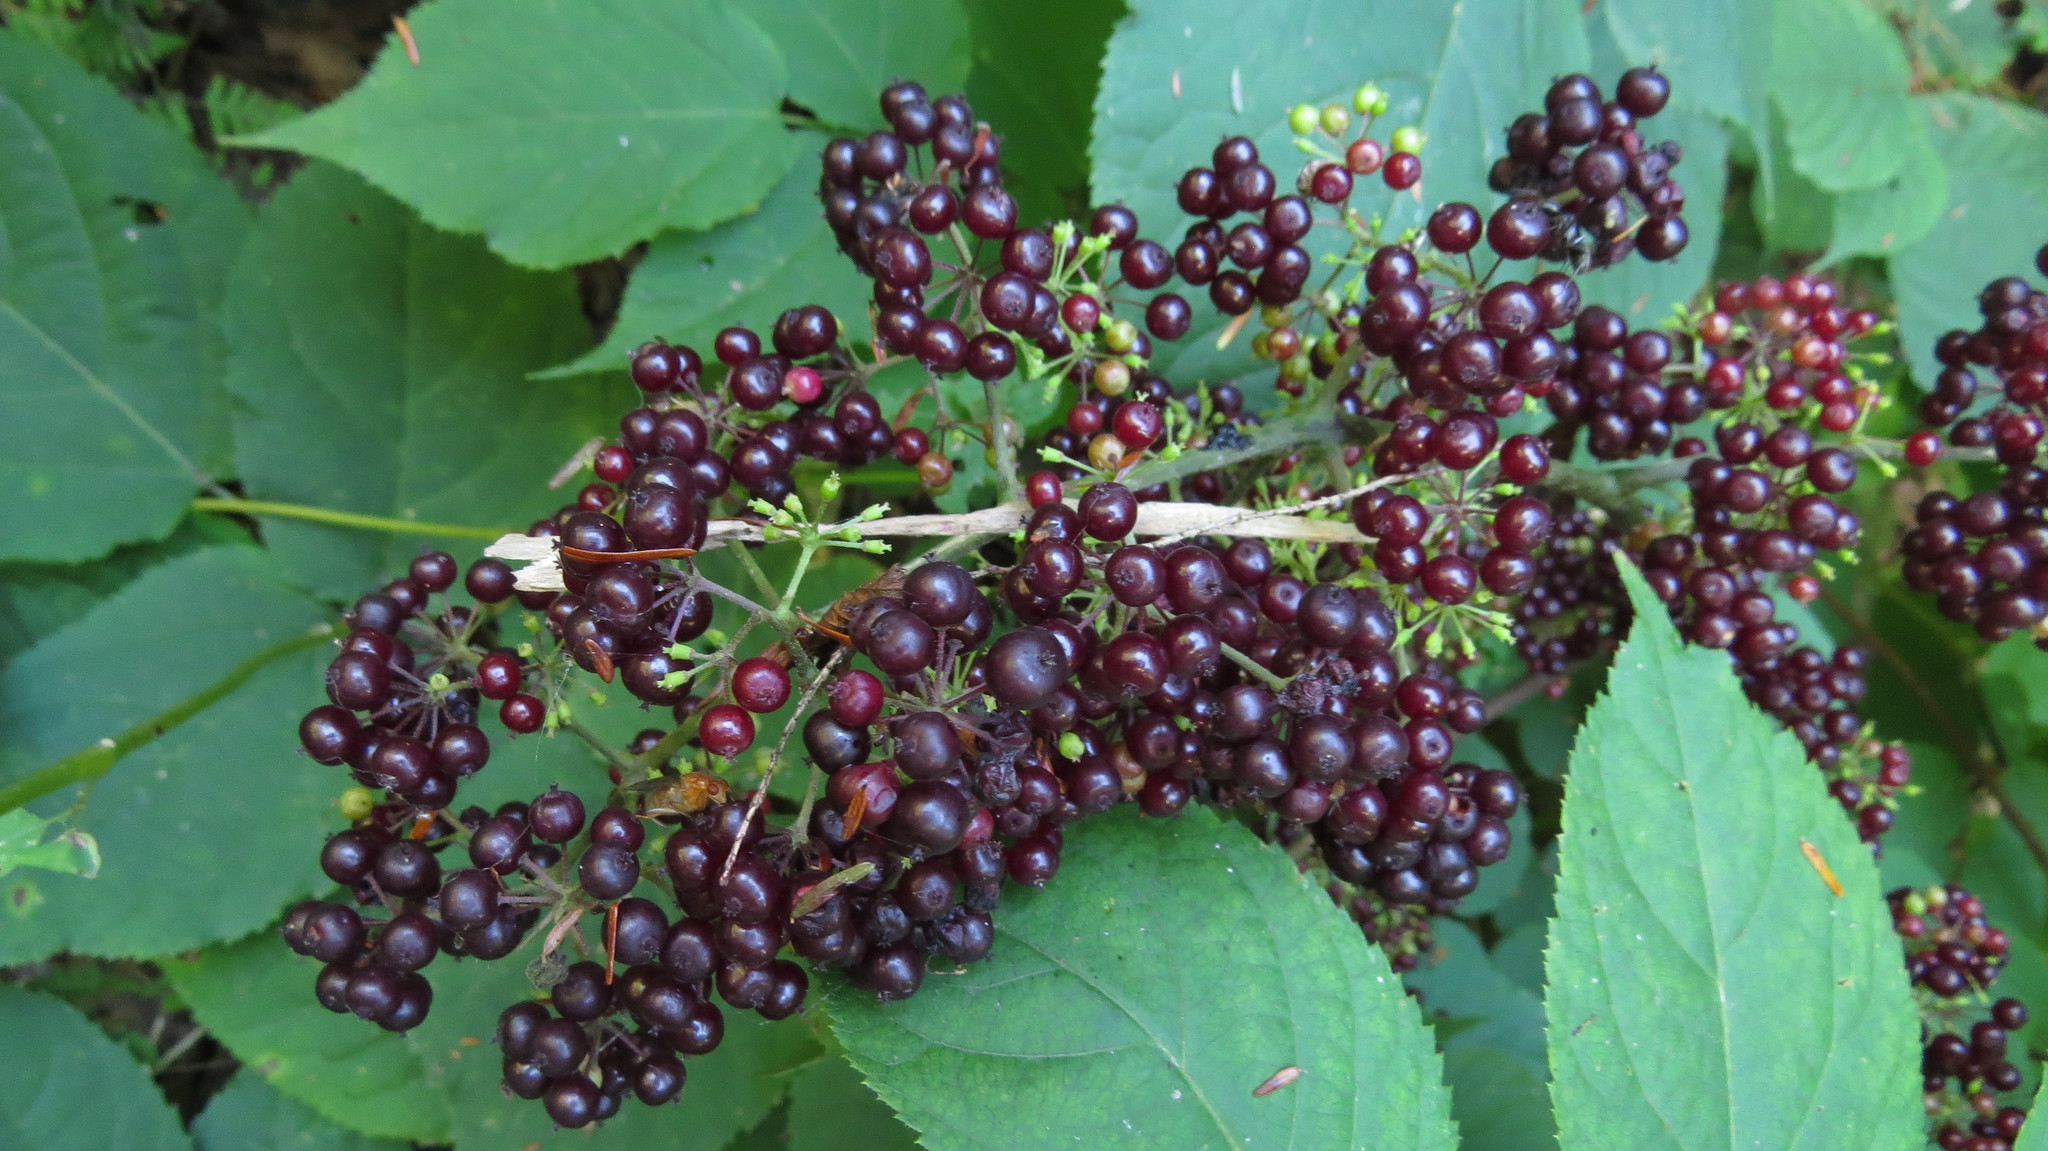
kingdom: Plantae
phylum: Tracheophyta
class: Magnoliopsida
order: Apiales
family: Araliaceae
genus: Aralia
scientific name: Aralia racemosa
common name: American-spikenard
